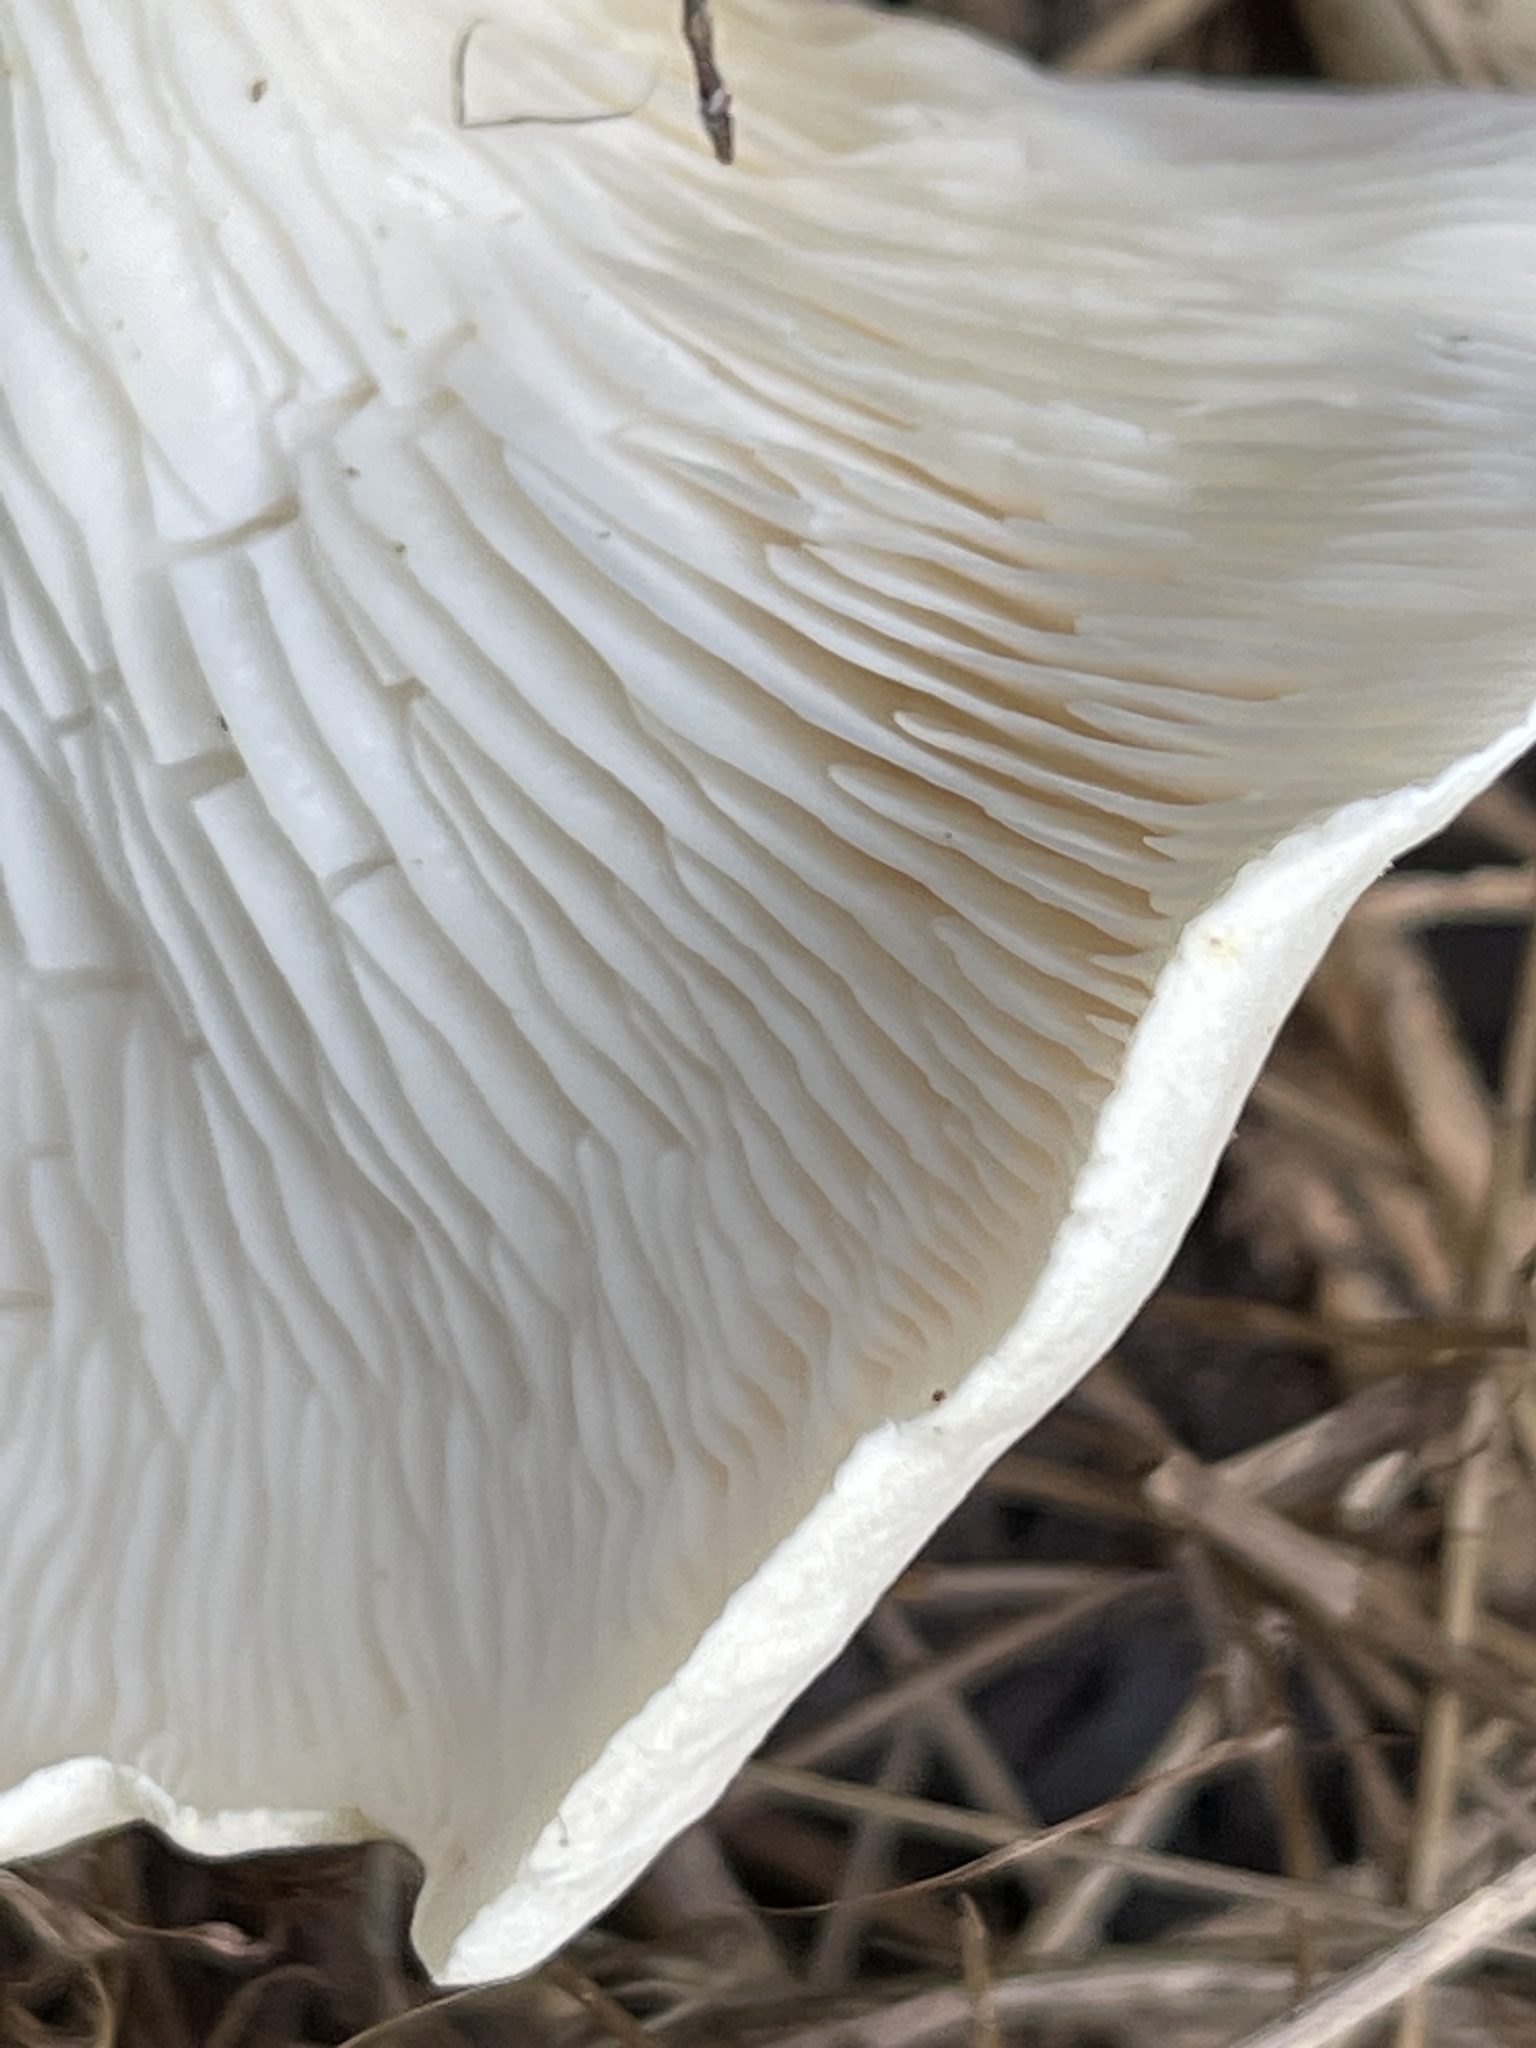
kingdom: Fungi
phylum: Basidiomycota
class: Agaricomycetes
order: Agaricales
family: Omphalotaceae
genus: Omphalotus
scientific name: Omphalotus nidiformis
